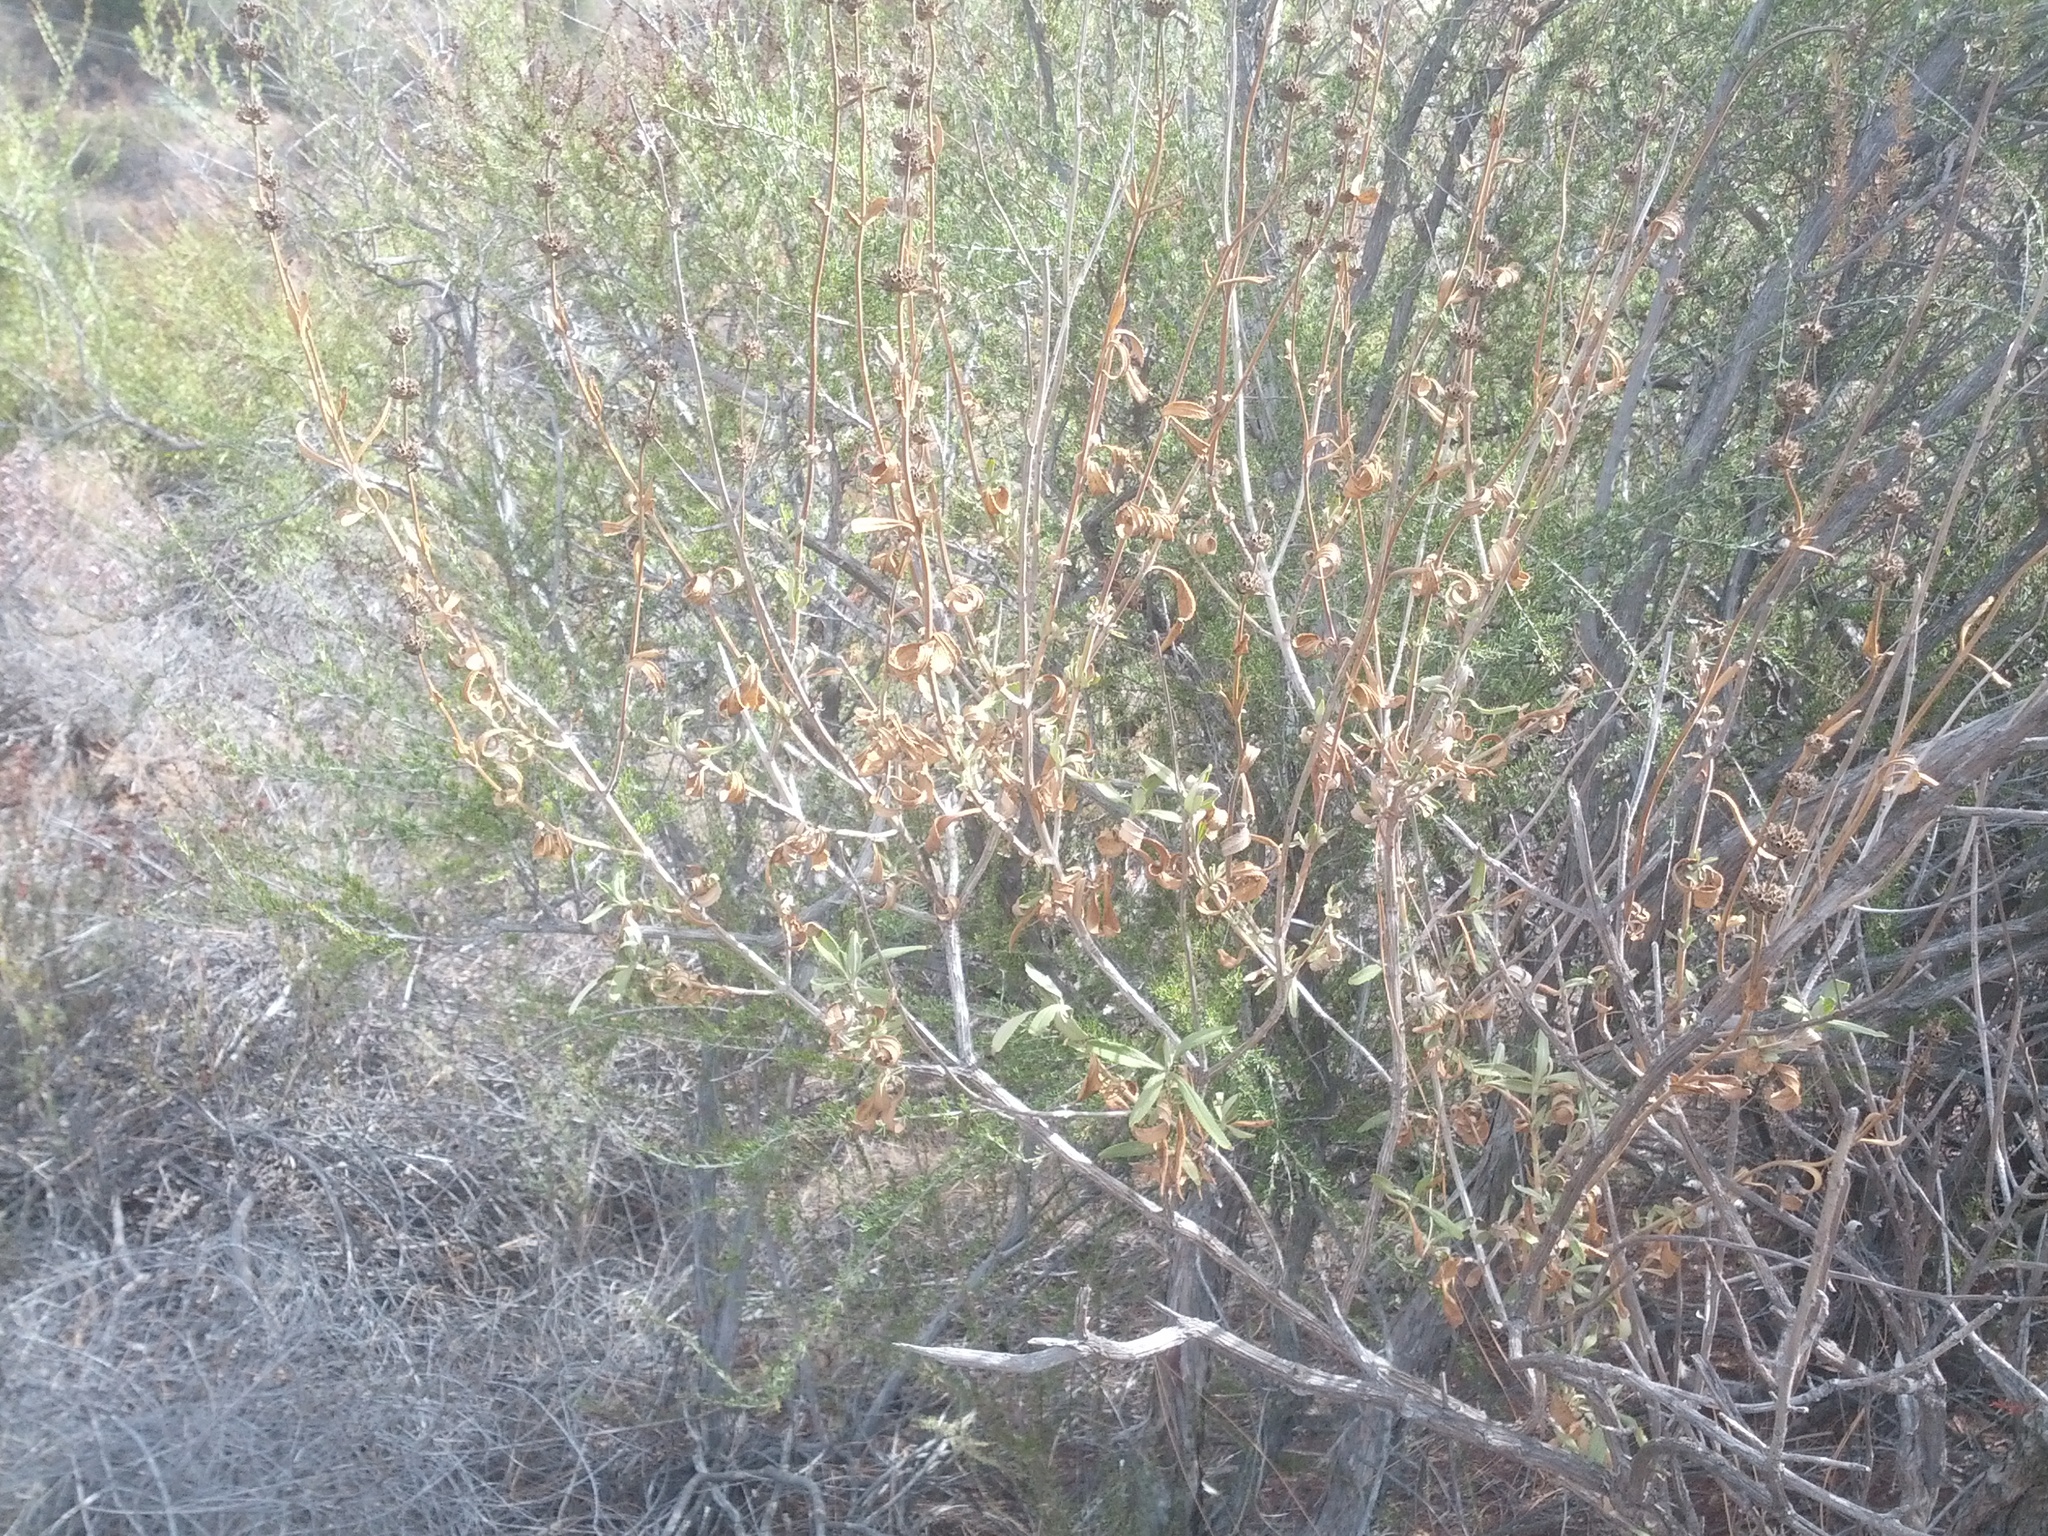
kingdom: Plantae
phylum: Tracheophyta
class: Magnoliopsida
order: Lamiales
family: Lamiaceae
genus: Salvia
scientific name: Salvia mellifera
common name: Black sage
